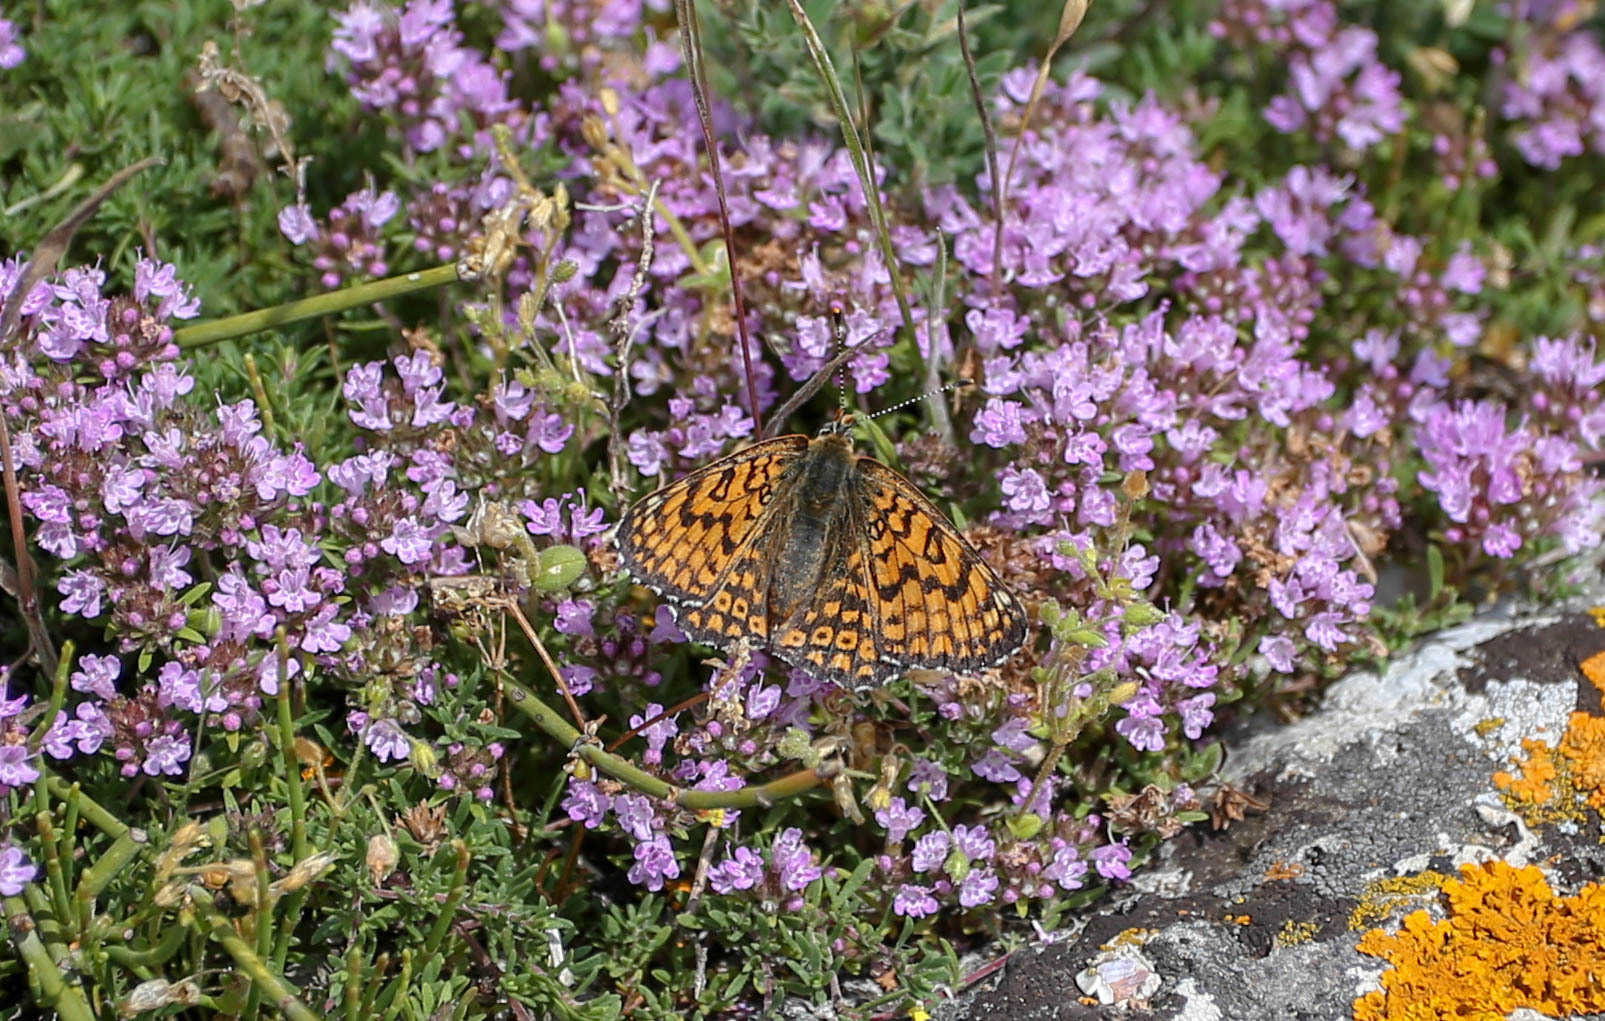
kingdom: Animalia
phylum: Arthropoda
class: Insecta
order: Lepidoptera
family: Nymphalidae
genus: Melitaea
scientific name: Melitaea cinxia
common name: Glanville fritillary
